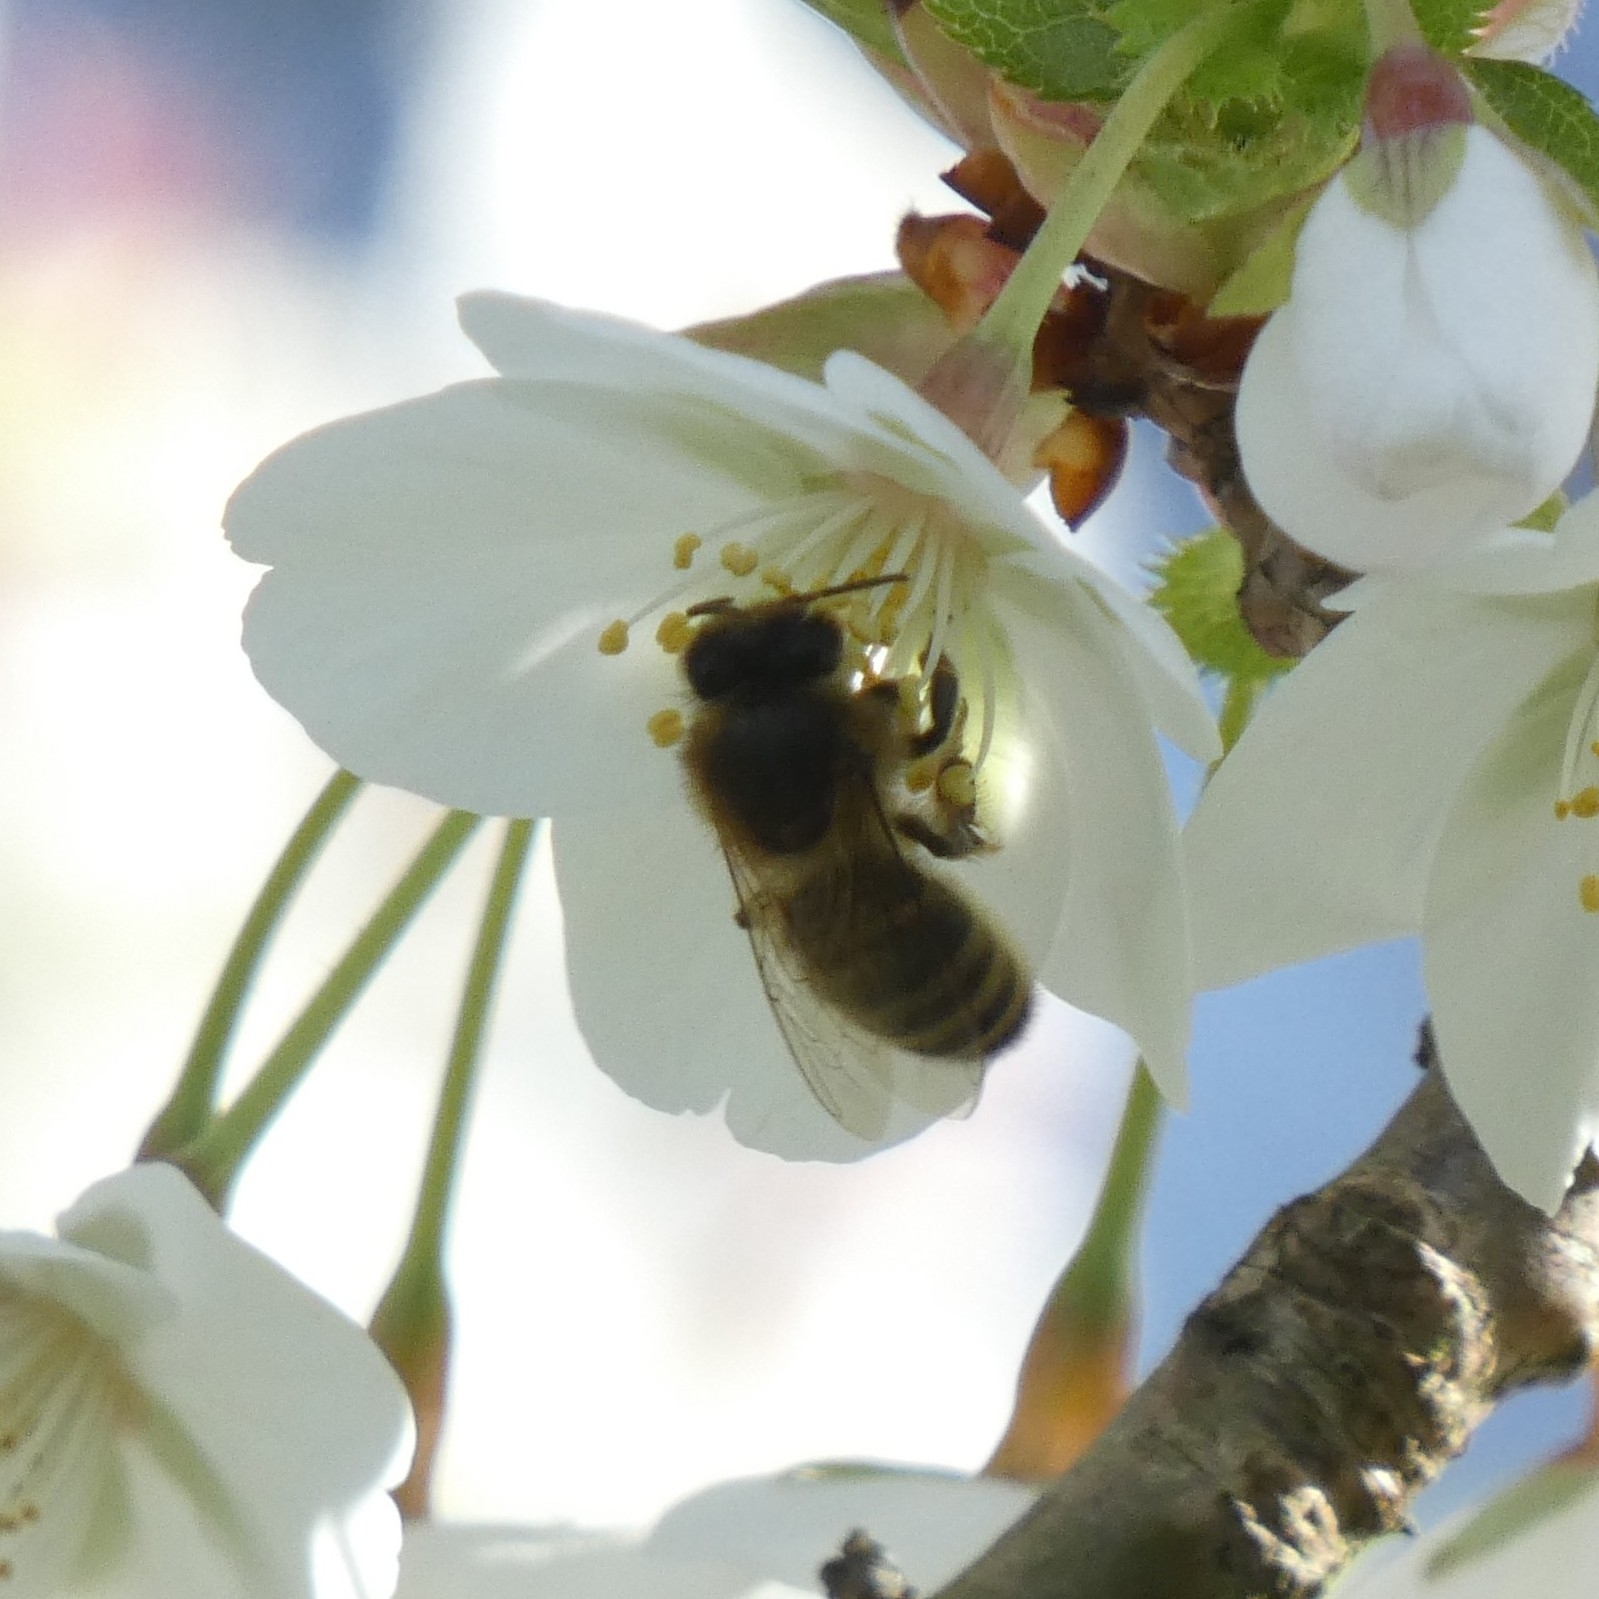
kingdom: Animalia
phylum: Arthropoda
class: Insecta
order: Hymenoptera
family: Apidae
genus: Apis
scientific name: Apis mellifera
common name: Honey bee
